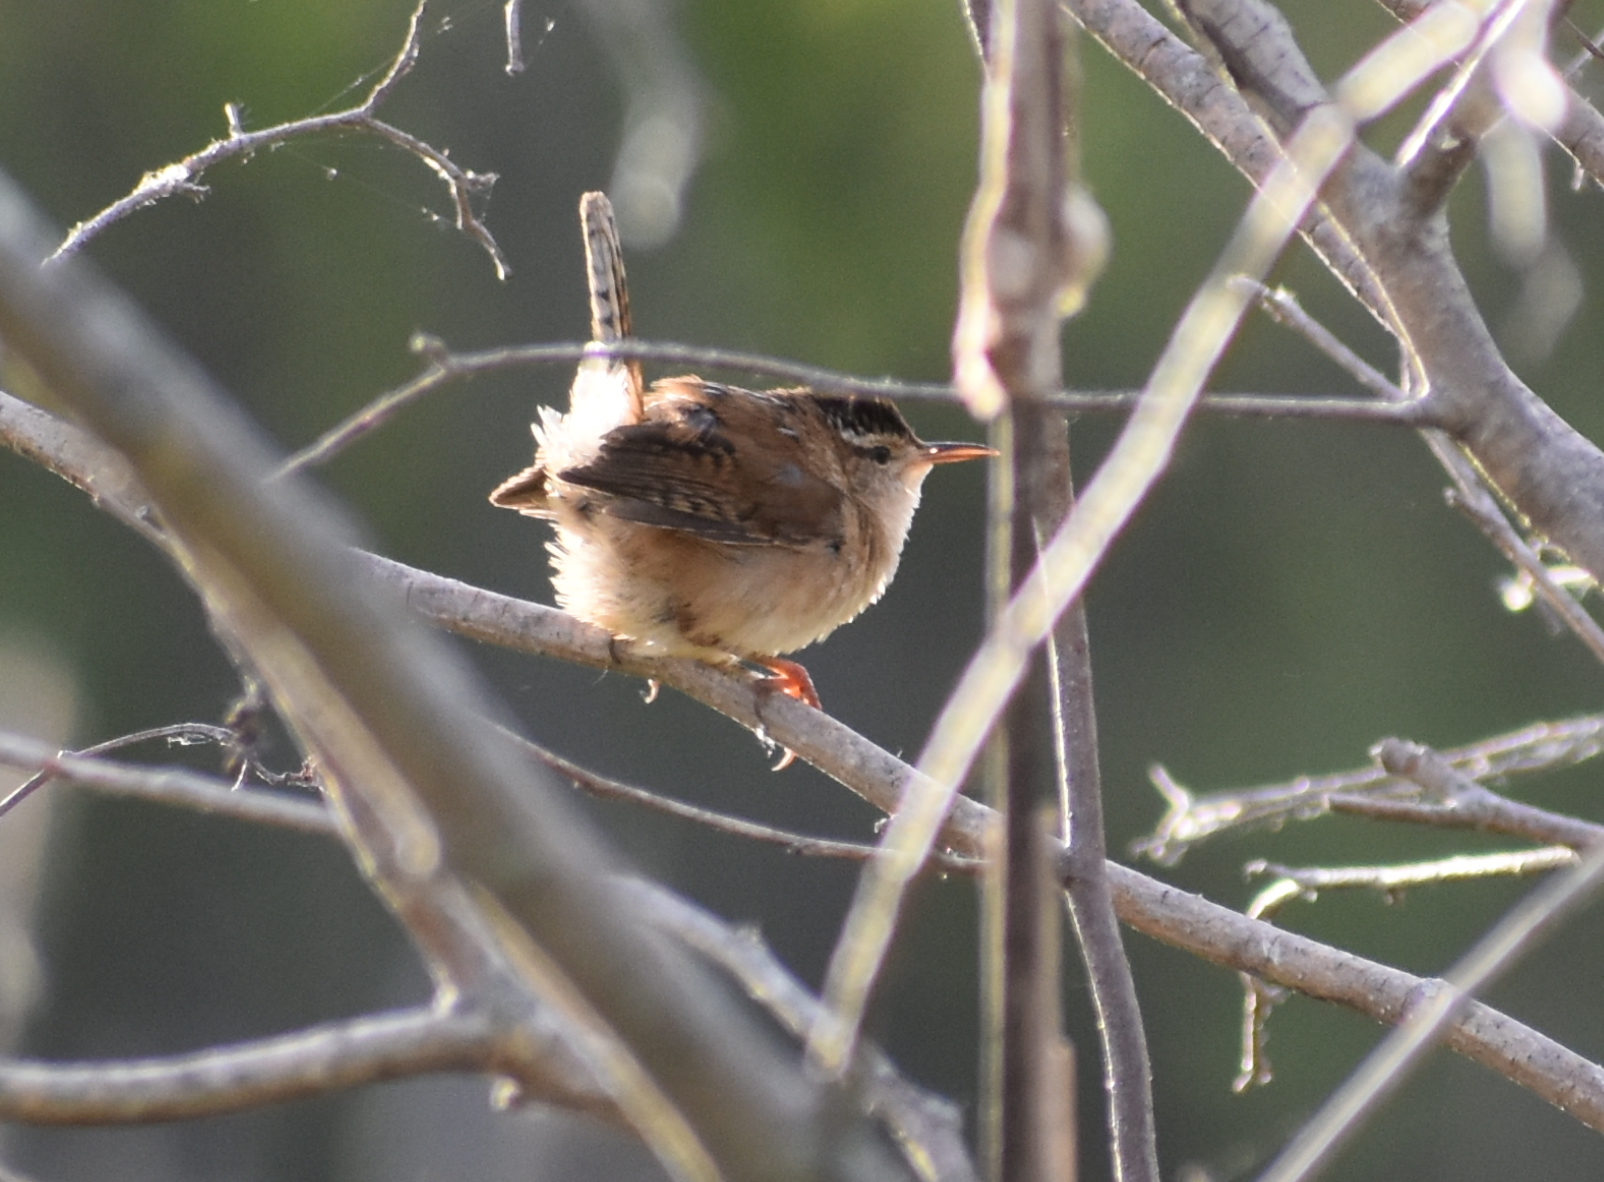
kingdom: Animalia
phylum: Chordata
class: Aves
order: Passeriformes
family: Troglodytidae
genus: Cistothorus
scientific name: Cistothorus palustris
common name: Marsh wren
